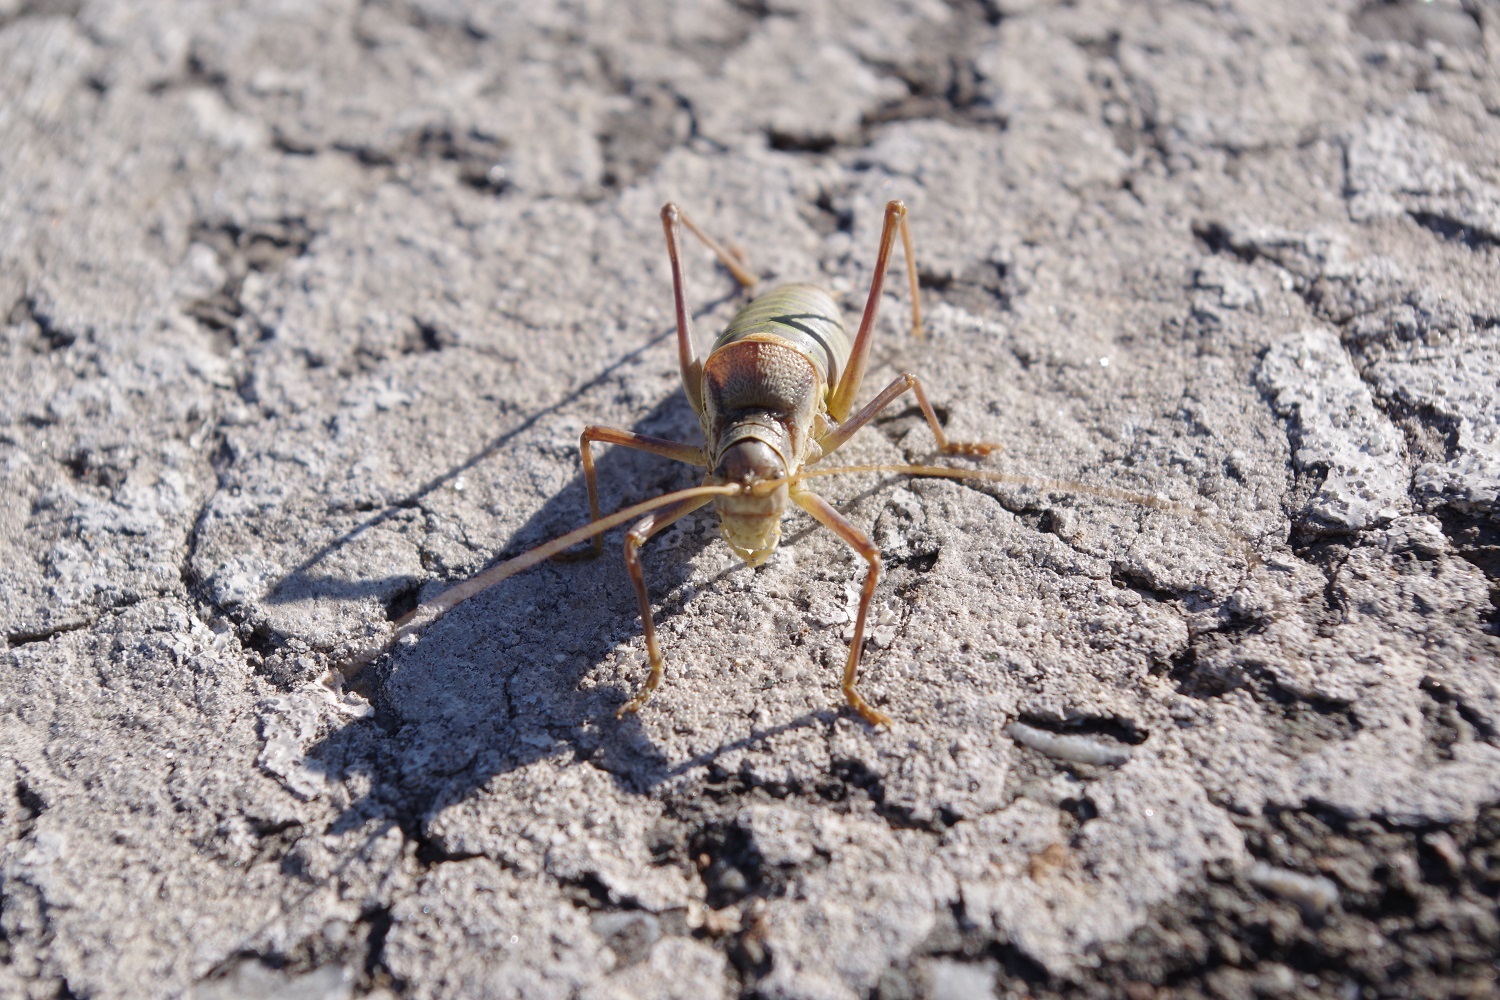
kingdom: Animalia
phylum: Arthropoda
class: Insecta
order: Orthoptera
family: Tettigoniidae
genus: Ephippiger
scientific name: Ephippiger diurnus
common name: Western saddle bush-cricket
